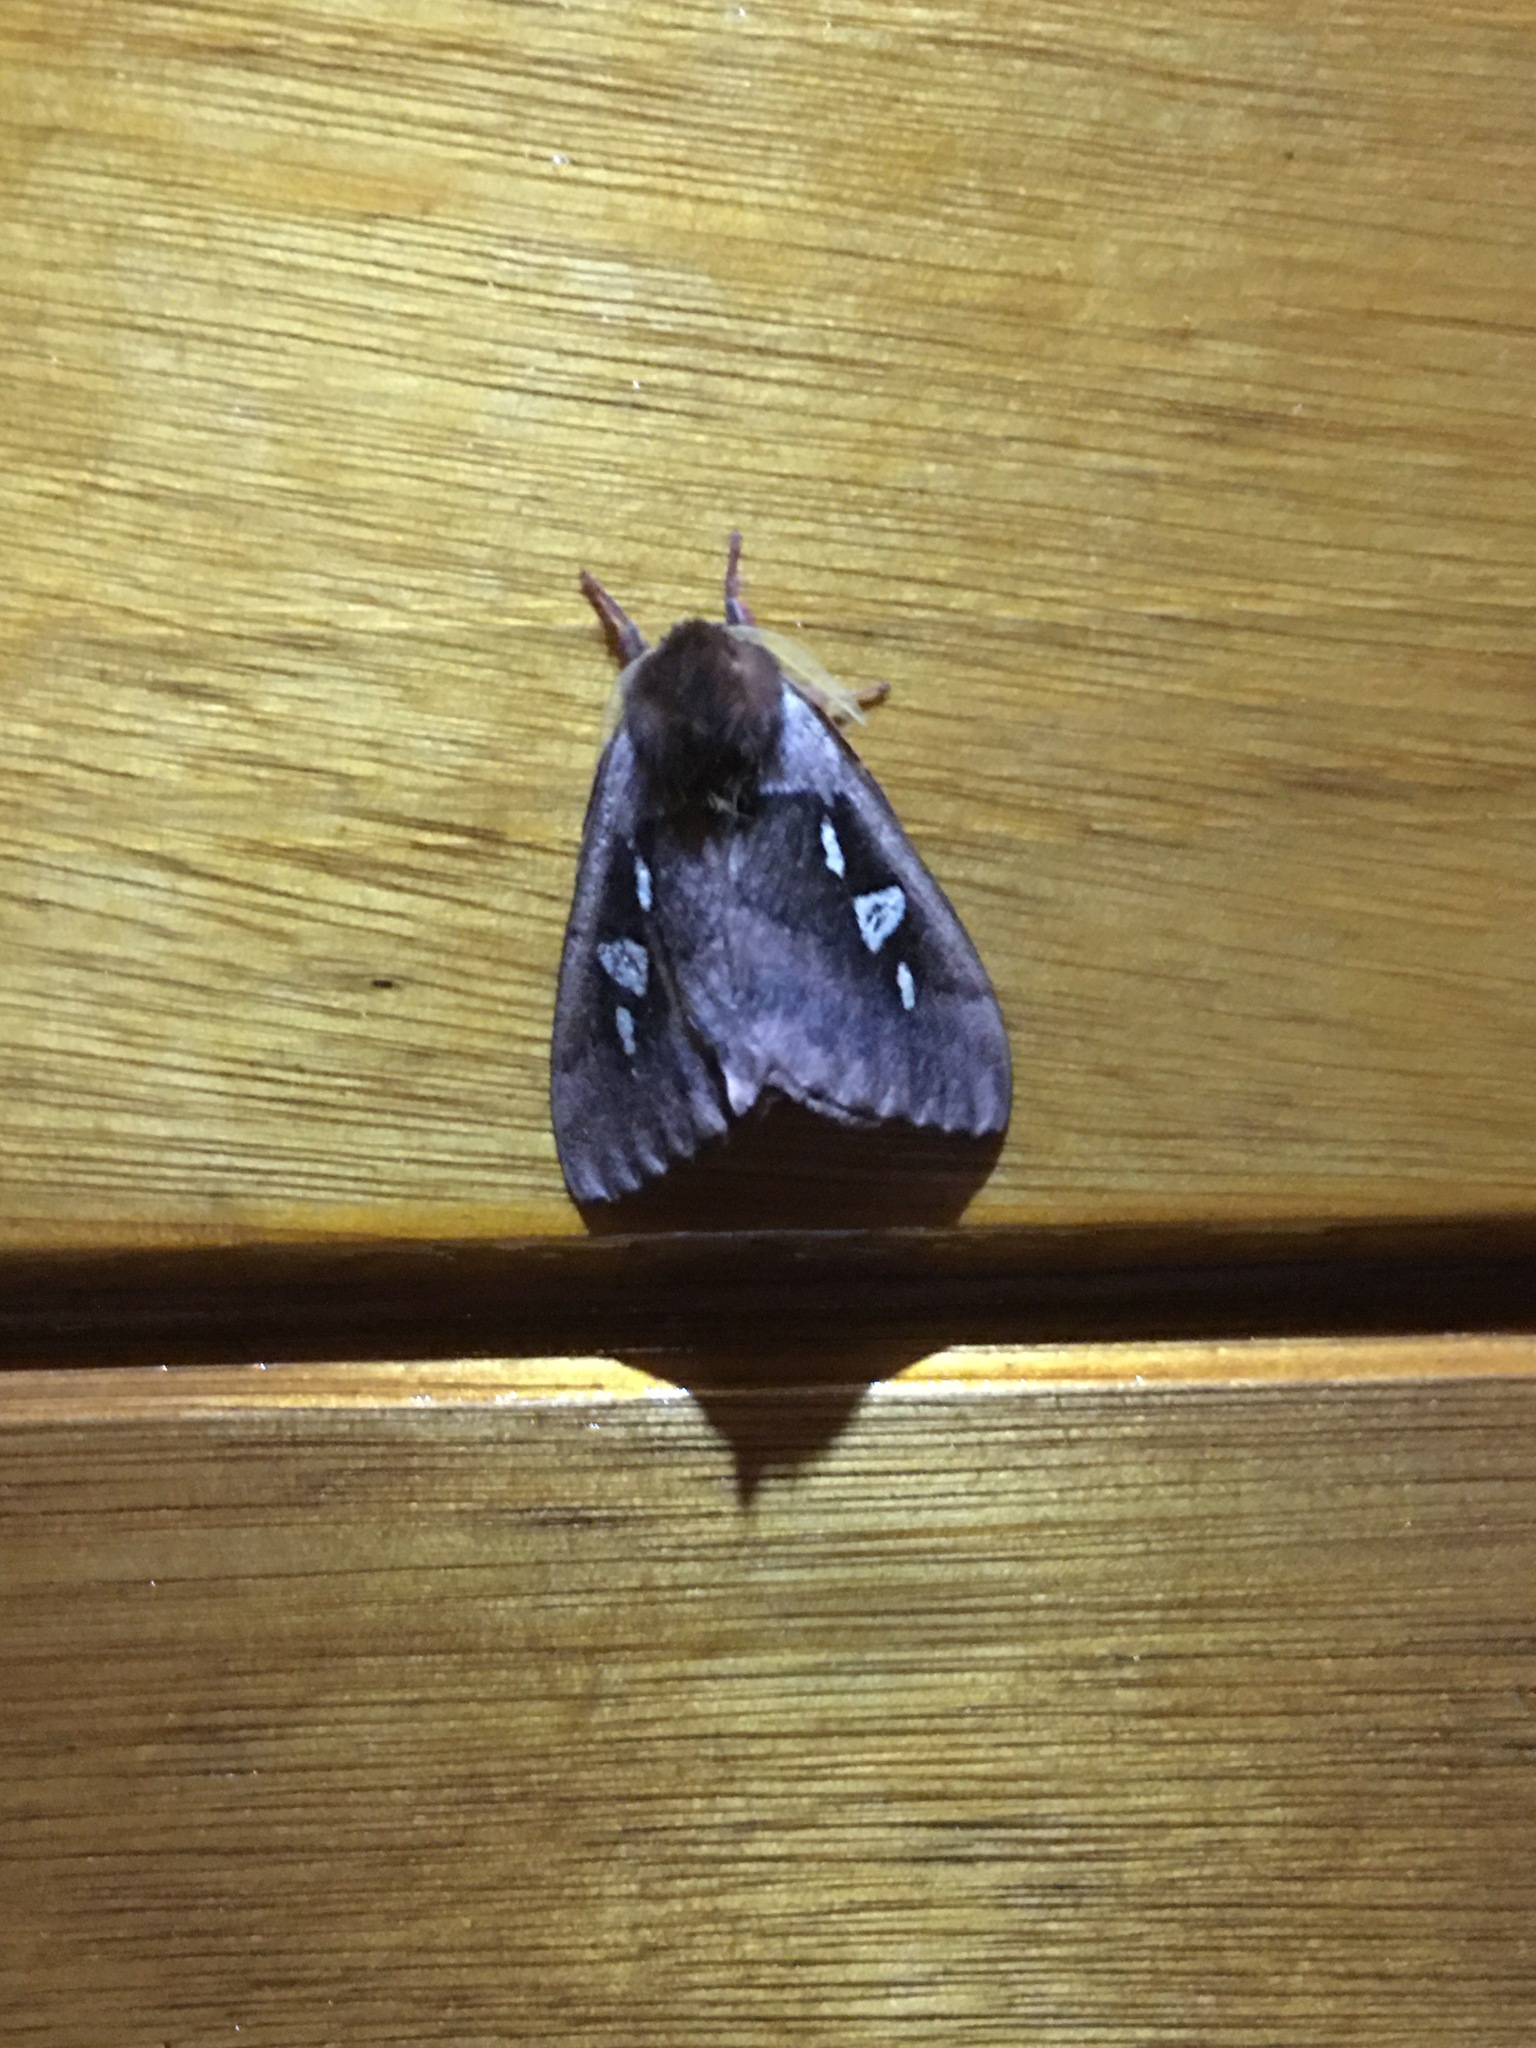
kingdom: Animalia
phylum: Arthropoda
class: Insecta
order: Lepidoptera
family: Saturniidae
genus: Dirphiopsis
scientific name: Dirphiopsis trisignata
